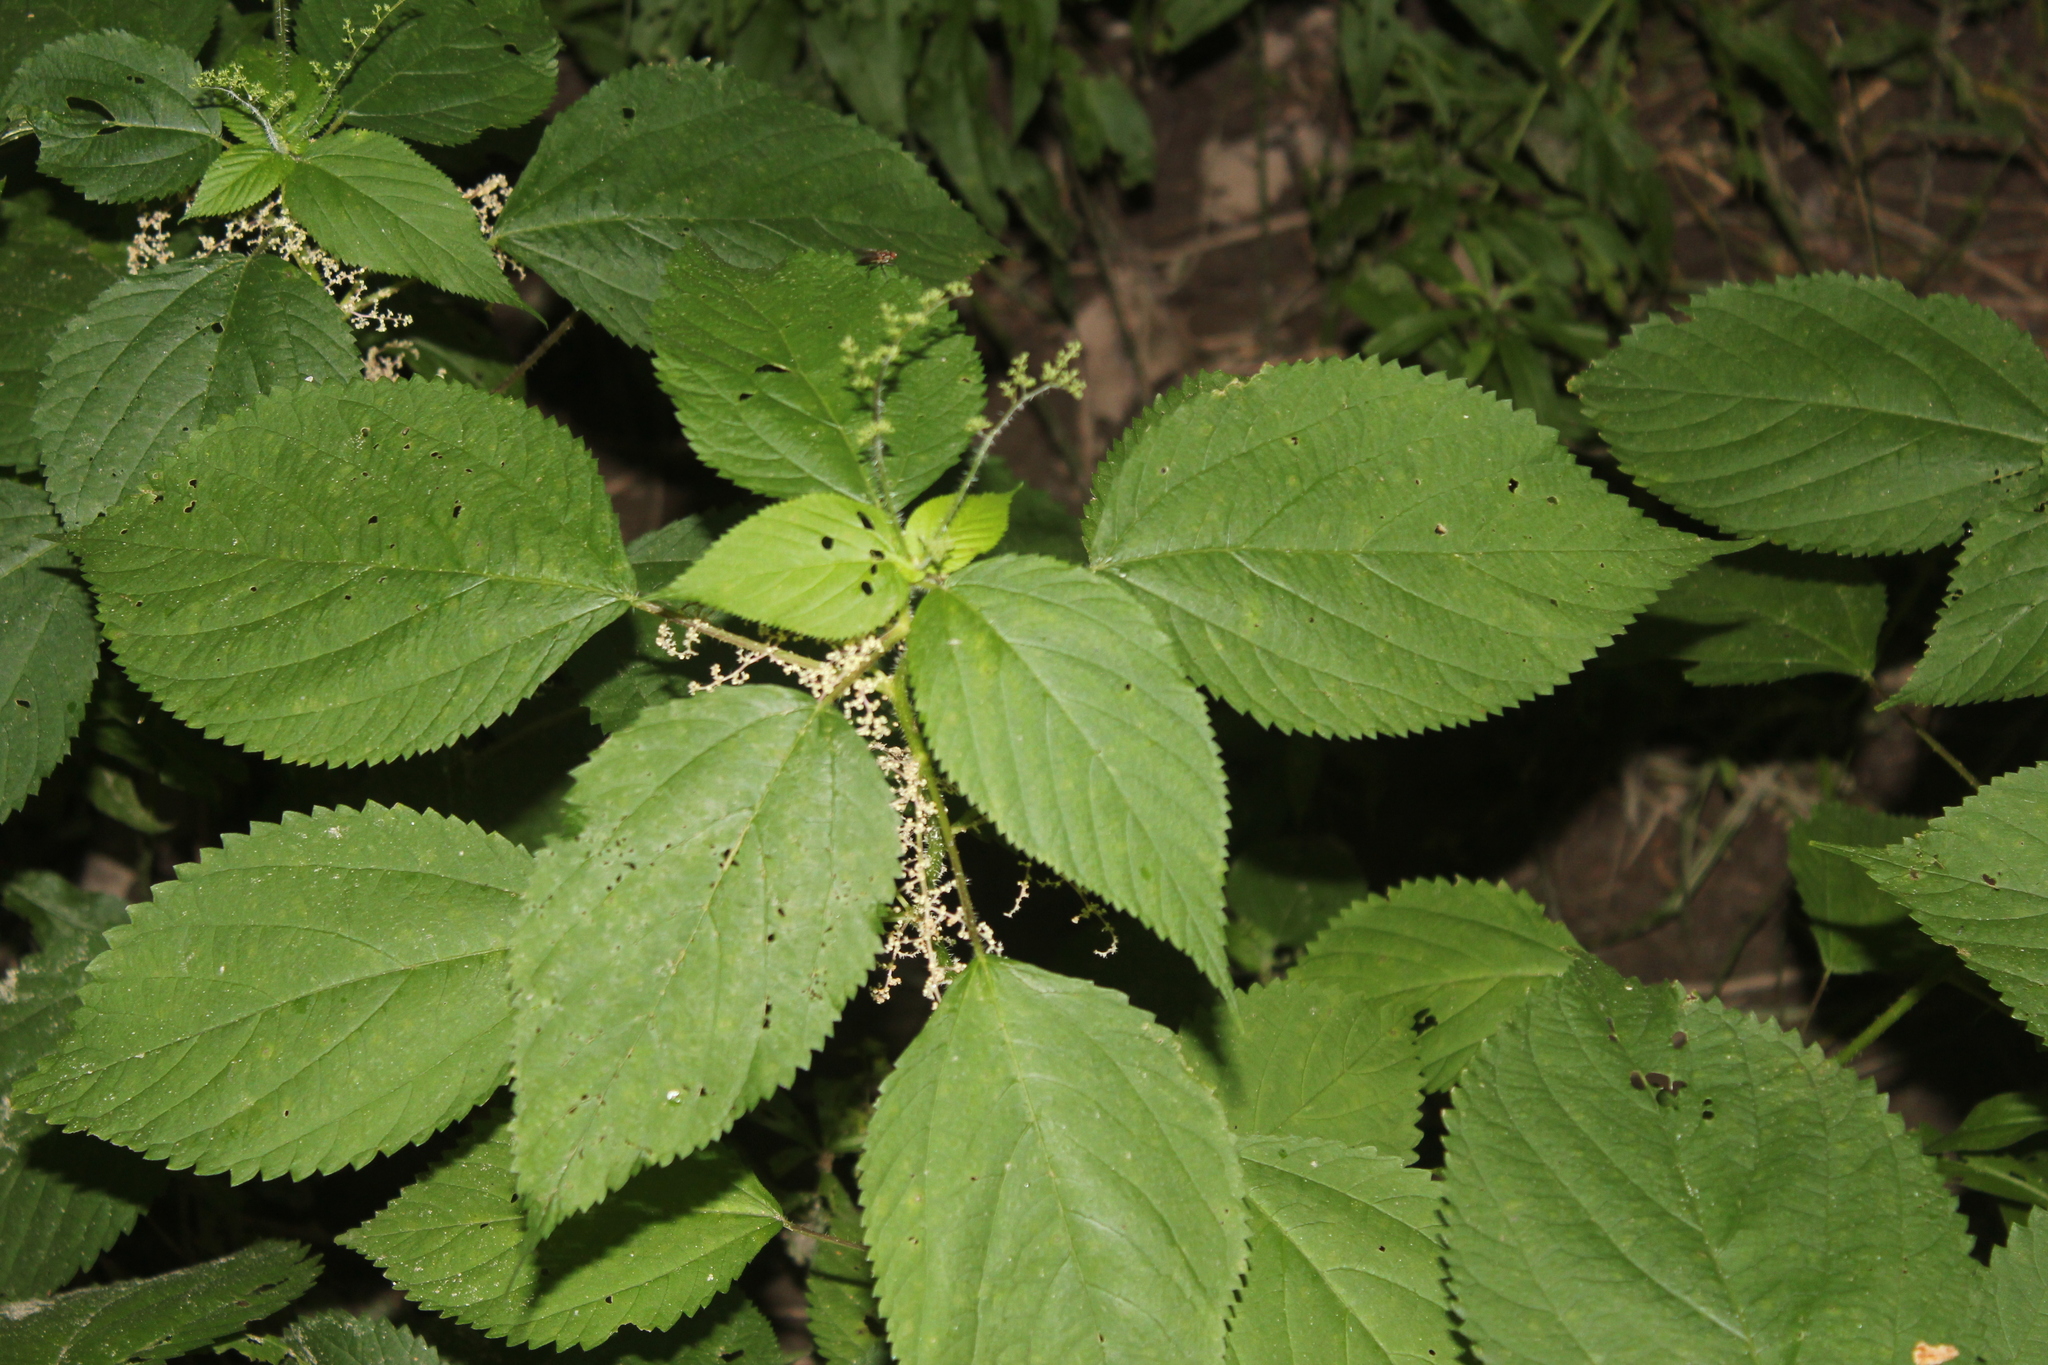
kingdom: Plantae
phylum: Tracheophyta
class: Magnoliopsida
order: Rosales
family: Urticaceae
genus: Laportea
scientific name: Laportea canadensis
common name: Canada nettle
